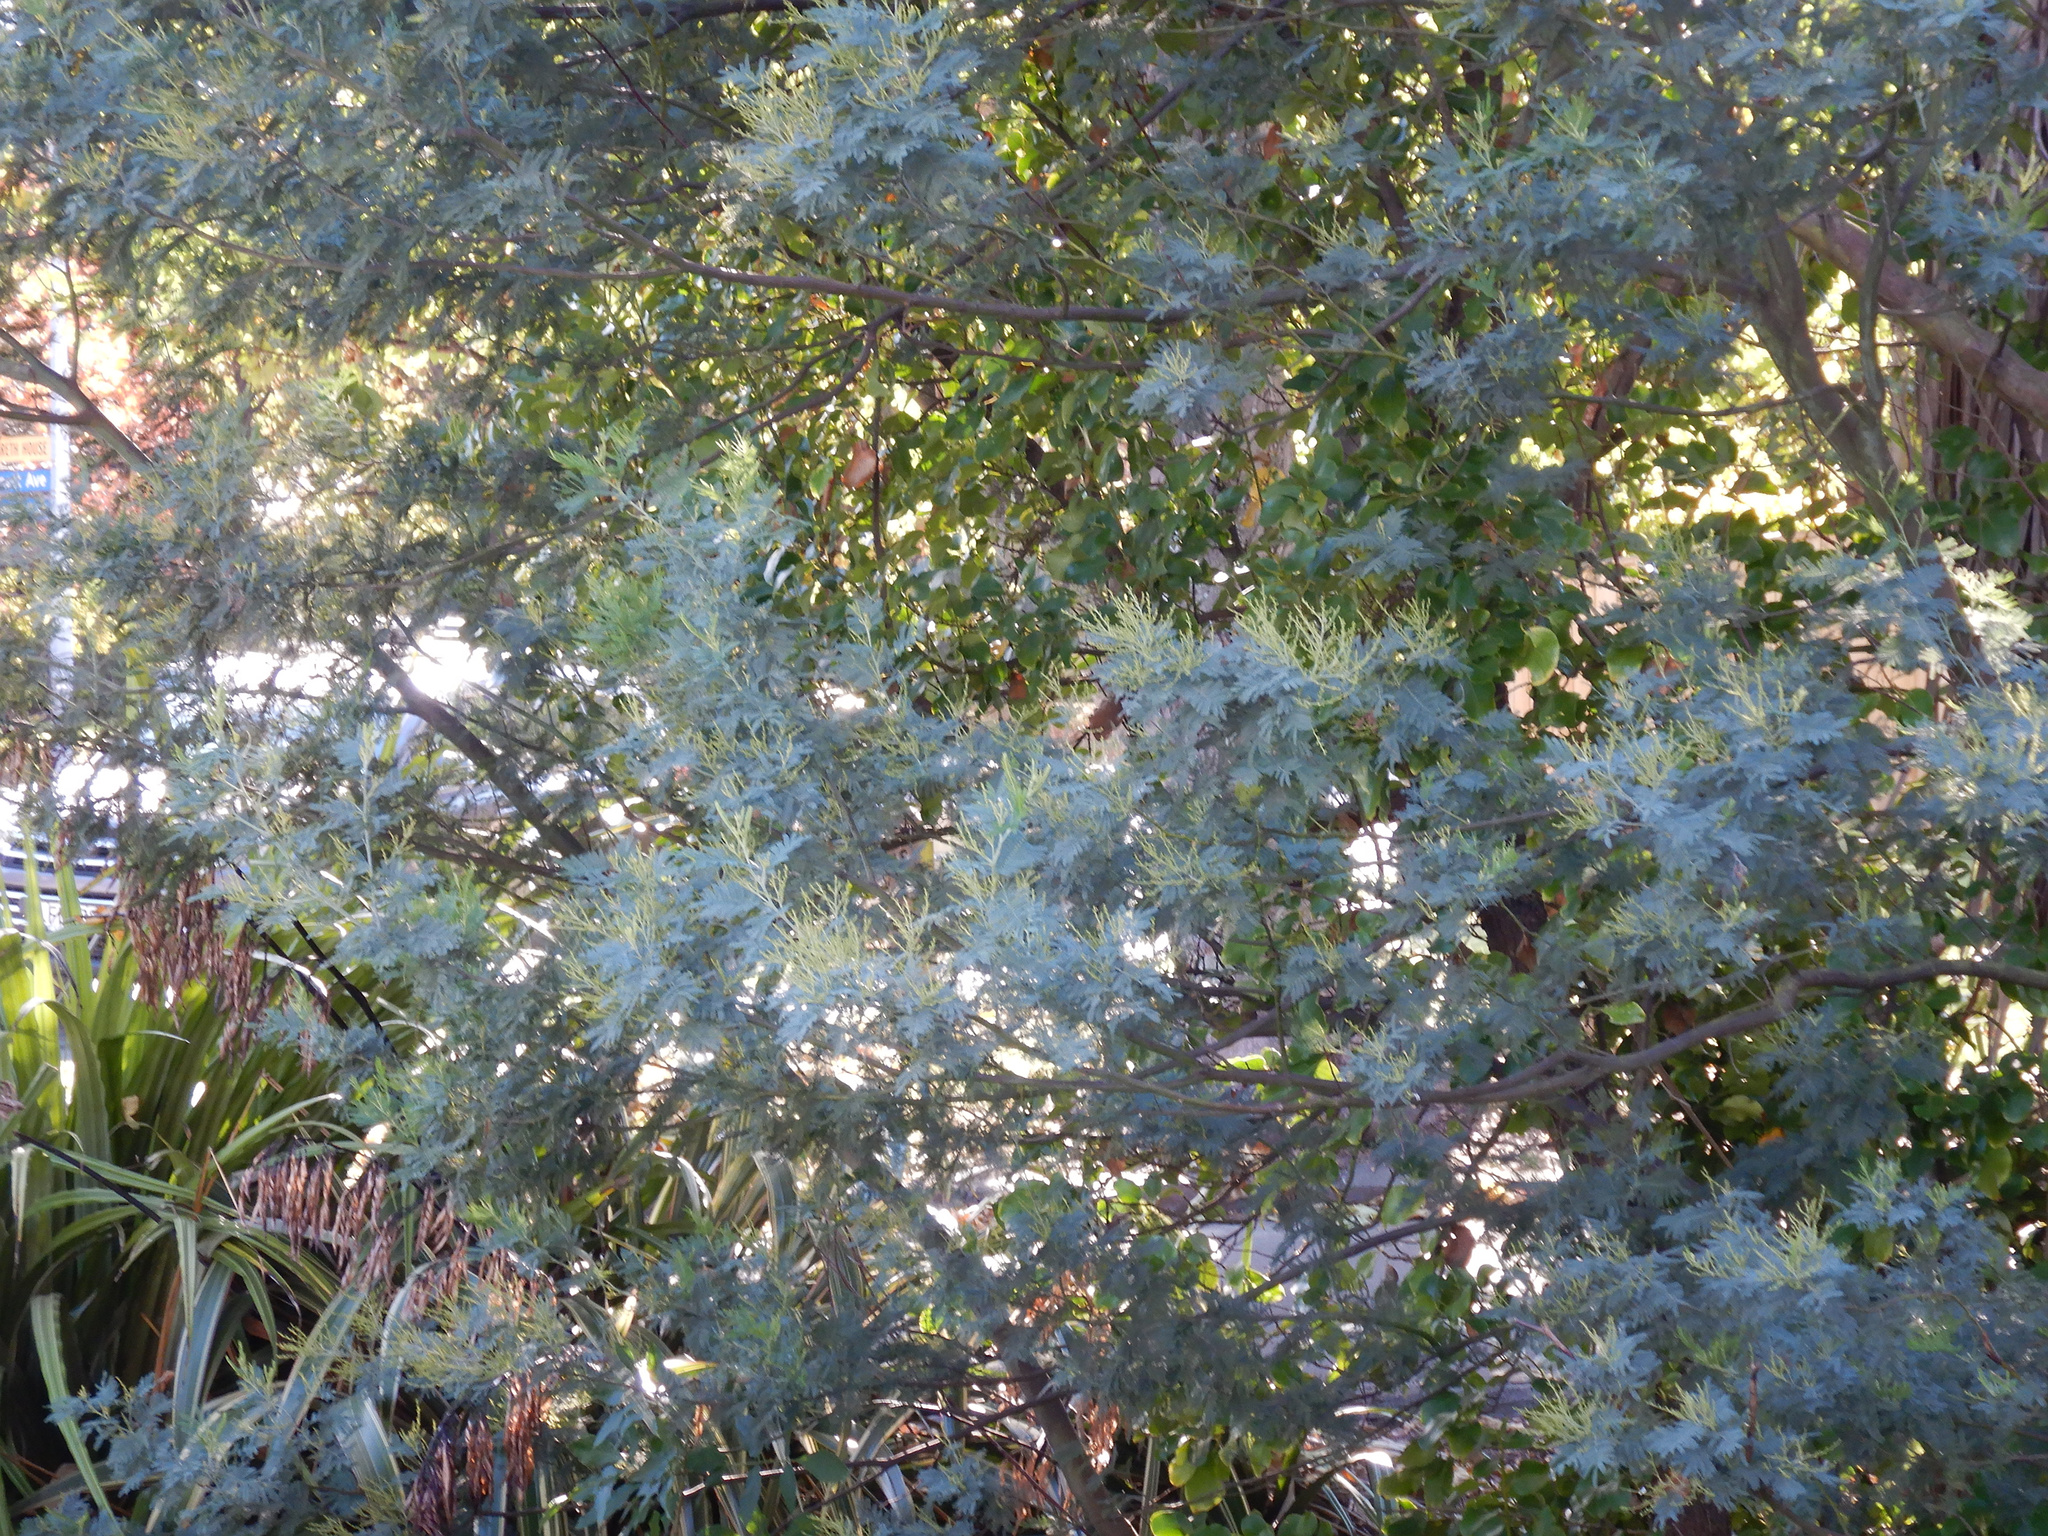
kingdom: Plantae
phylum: Tracheophyta
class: Magnoliopsida
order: Fabales
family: Fabaceae
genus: Acacia
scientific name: Acacia dealbata
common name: Silver wattle
